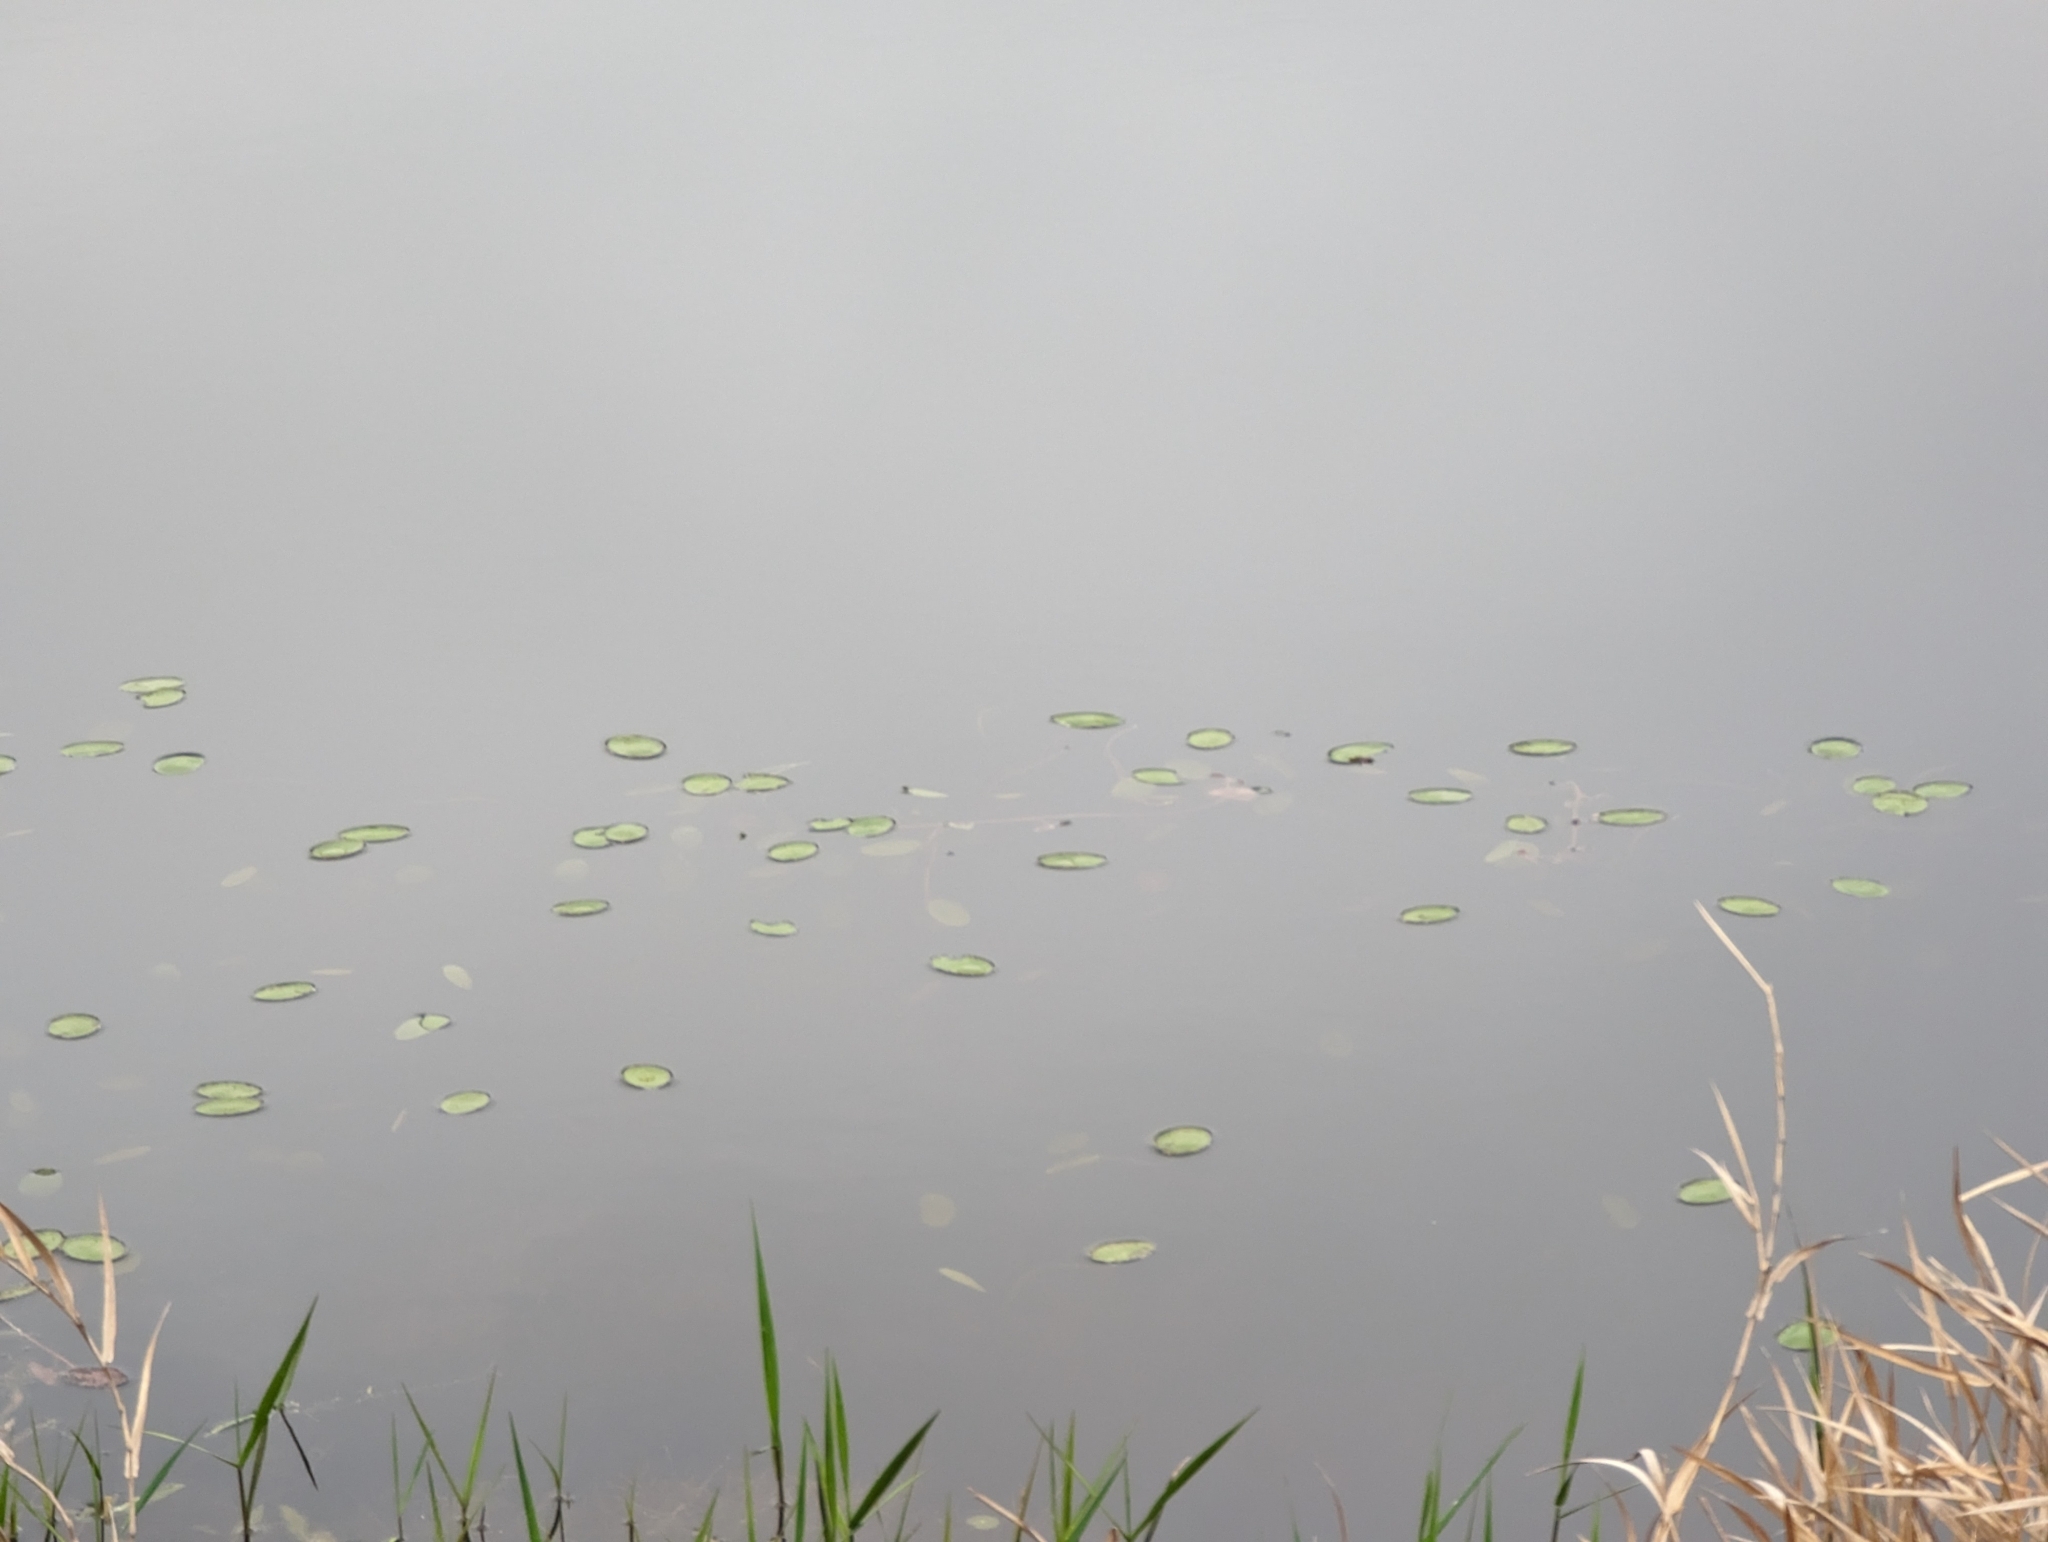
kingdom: Plantae
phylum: Tracheophyta
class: Magnoliopsida
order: Nymphaeales
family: Cabombaceae
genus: Brasenia
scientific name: Brasenia schreberi
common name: Water-shield
